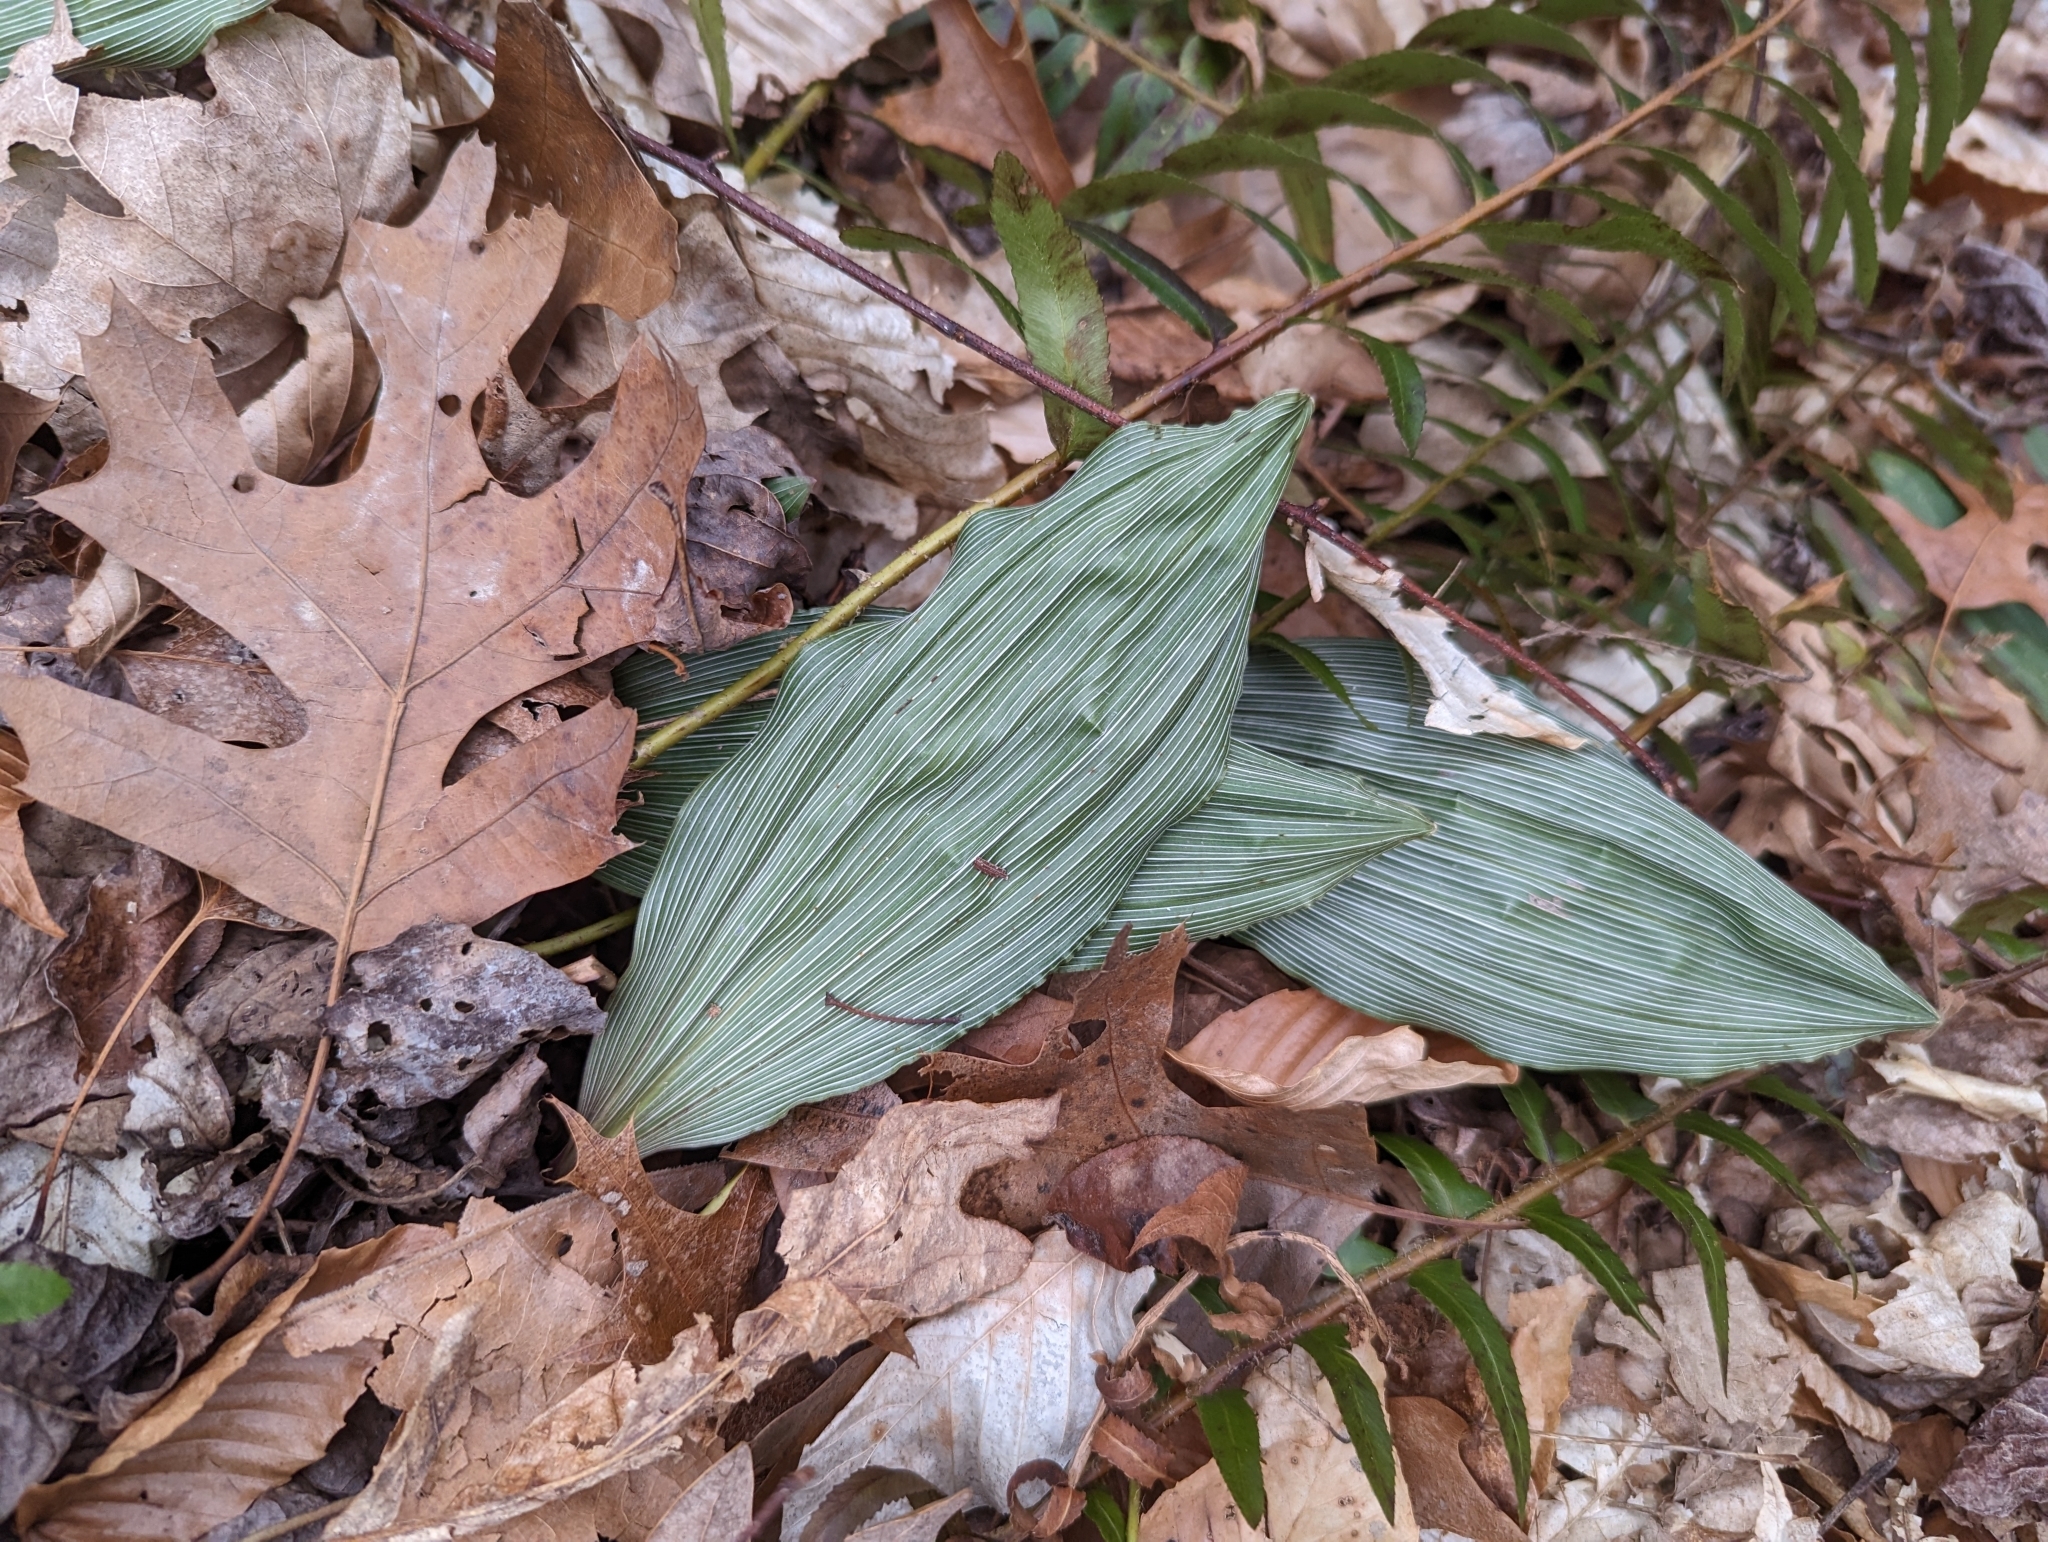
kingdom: Plantae
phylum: Tracheophyta
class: Liliopsida
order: Asparagales
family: Orchidaceae
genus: Aplectrum
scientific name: Aplectrum hyemale
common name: Adam-and-eve
